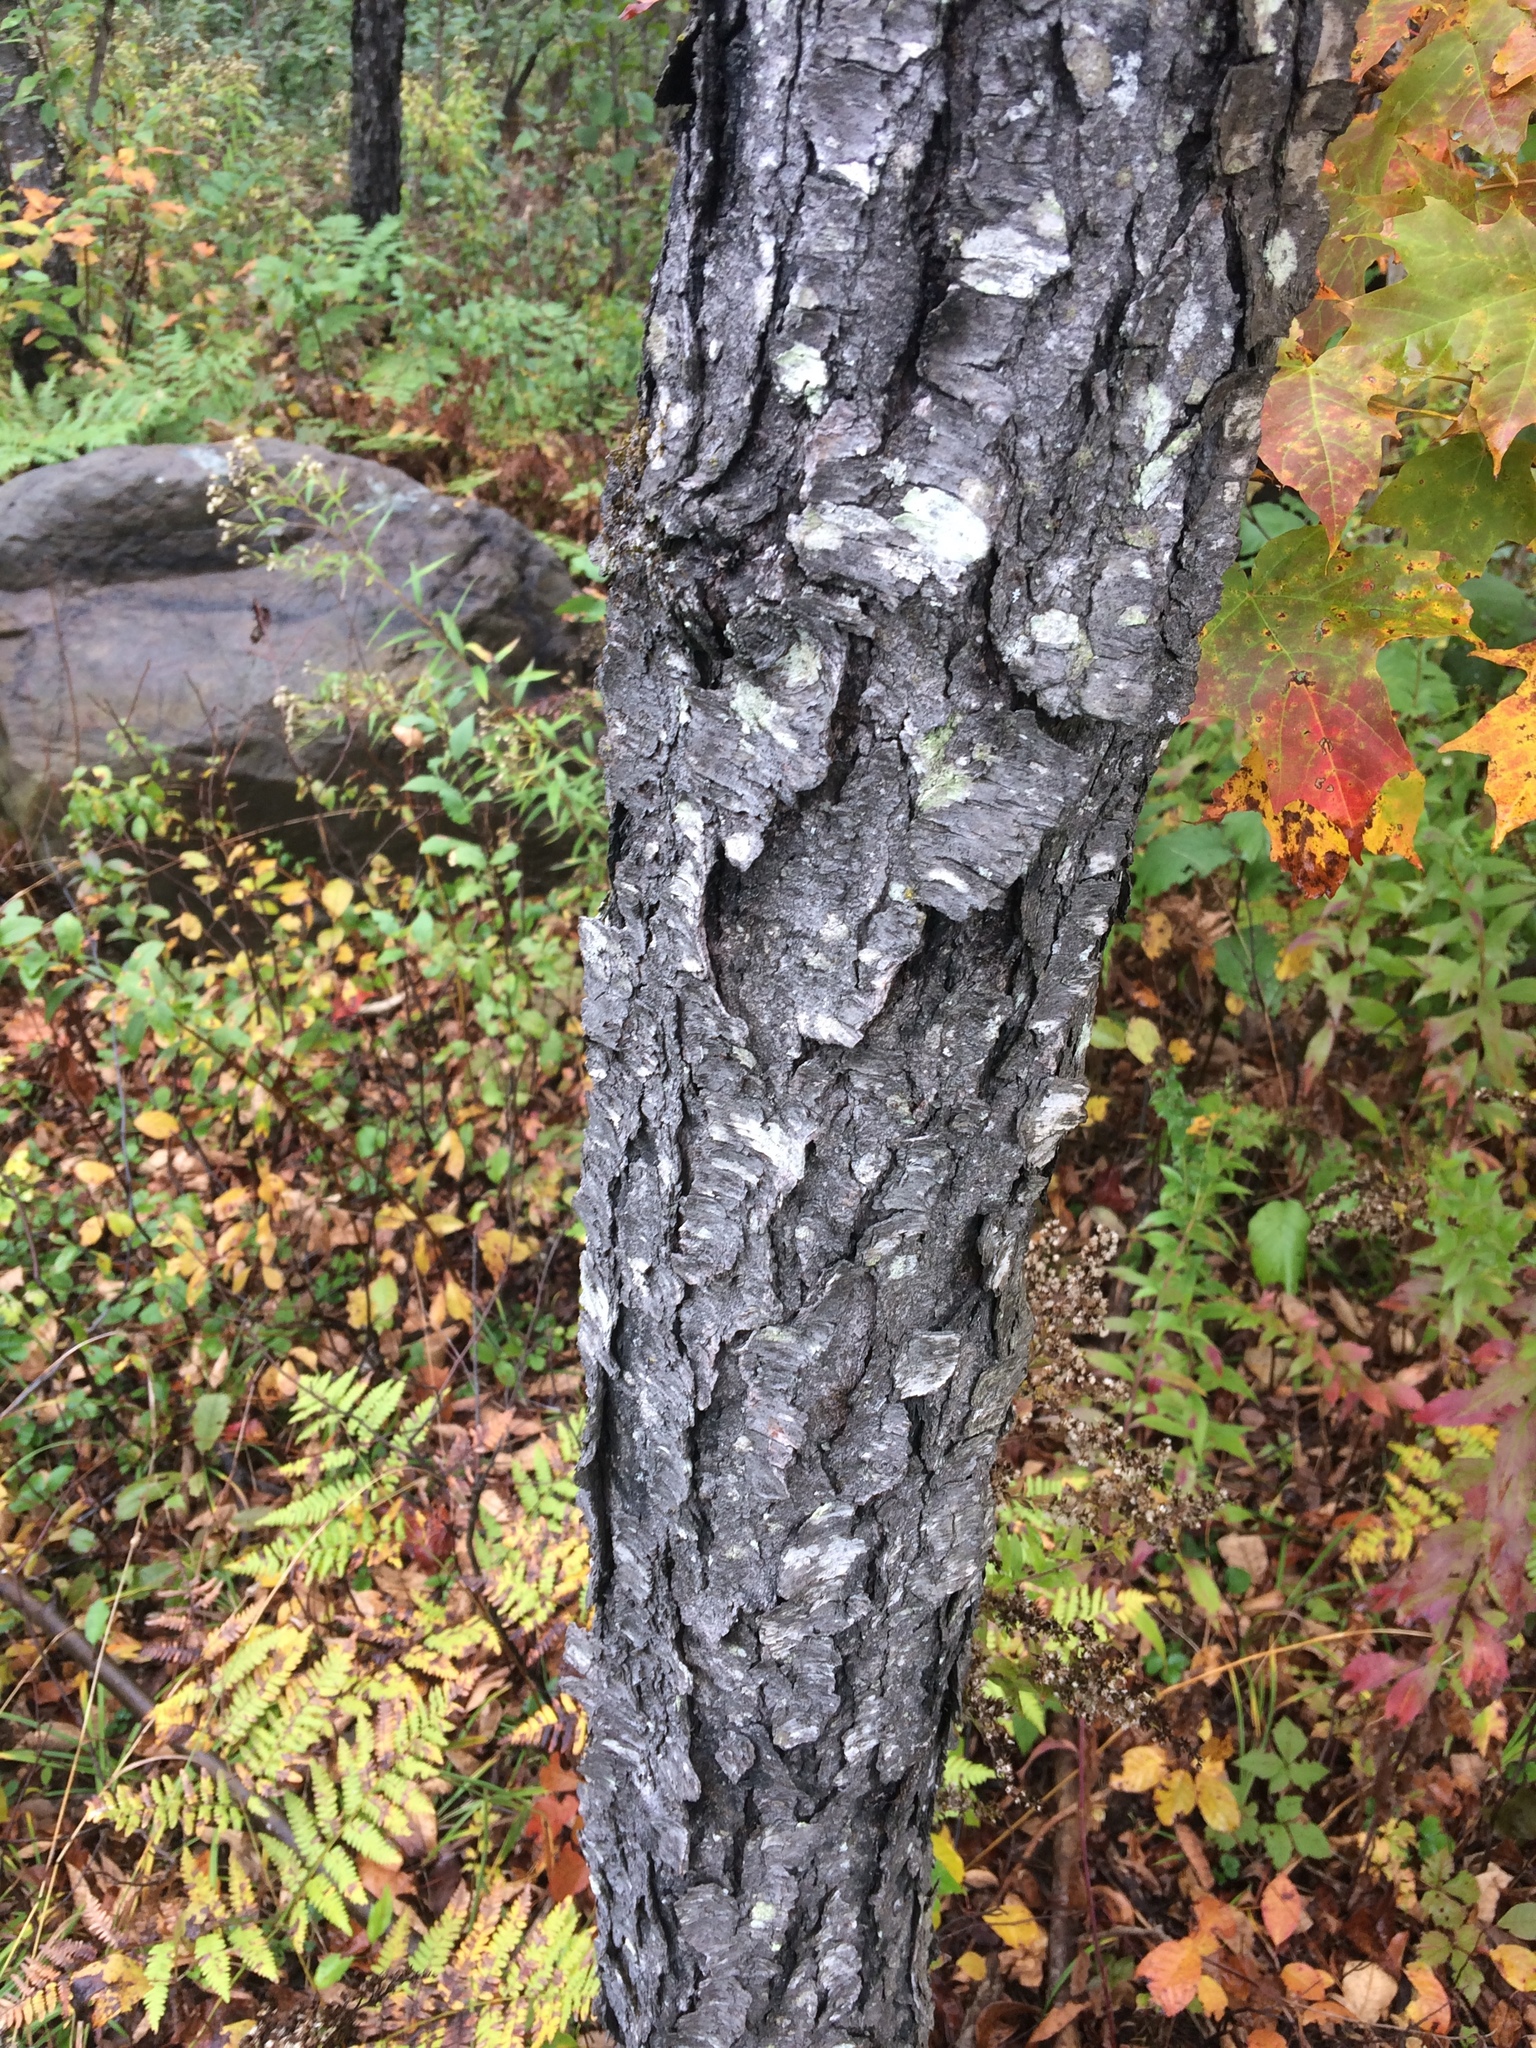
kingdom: Plantae
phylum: Tracheophyta
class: Magnoliopsida
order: Rosales
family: Rosaceae
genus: Prunus
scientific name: Prunus serotina
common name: Black cherry
